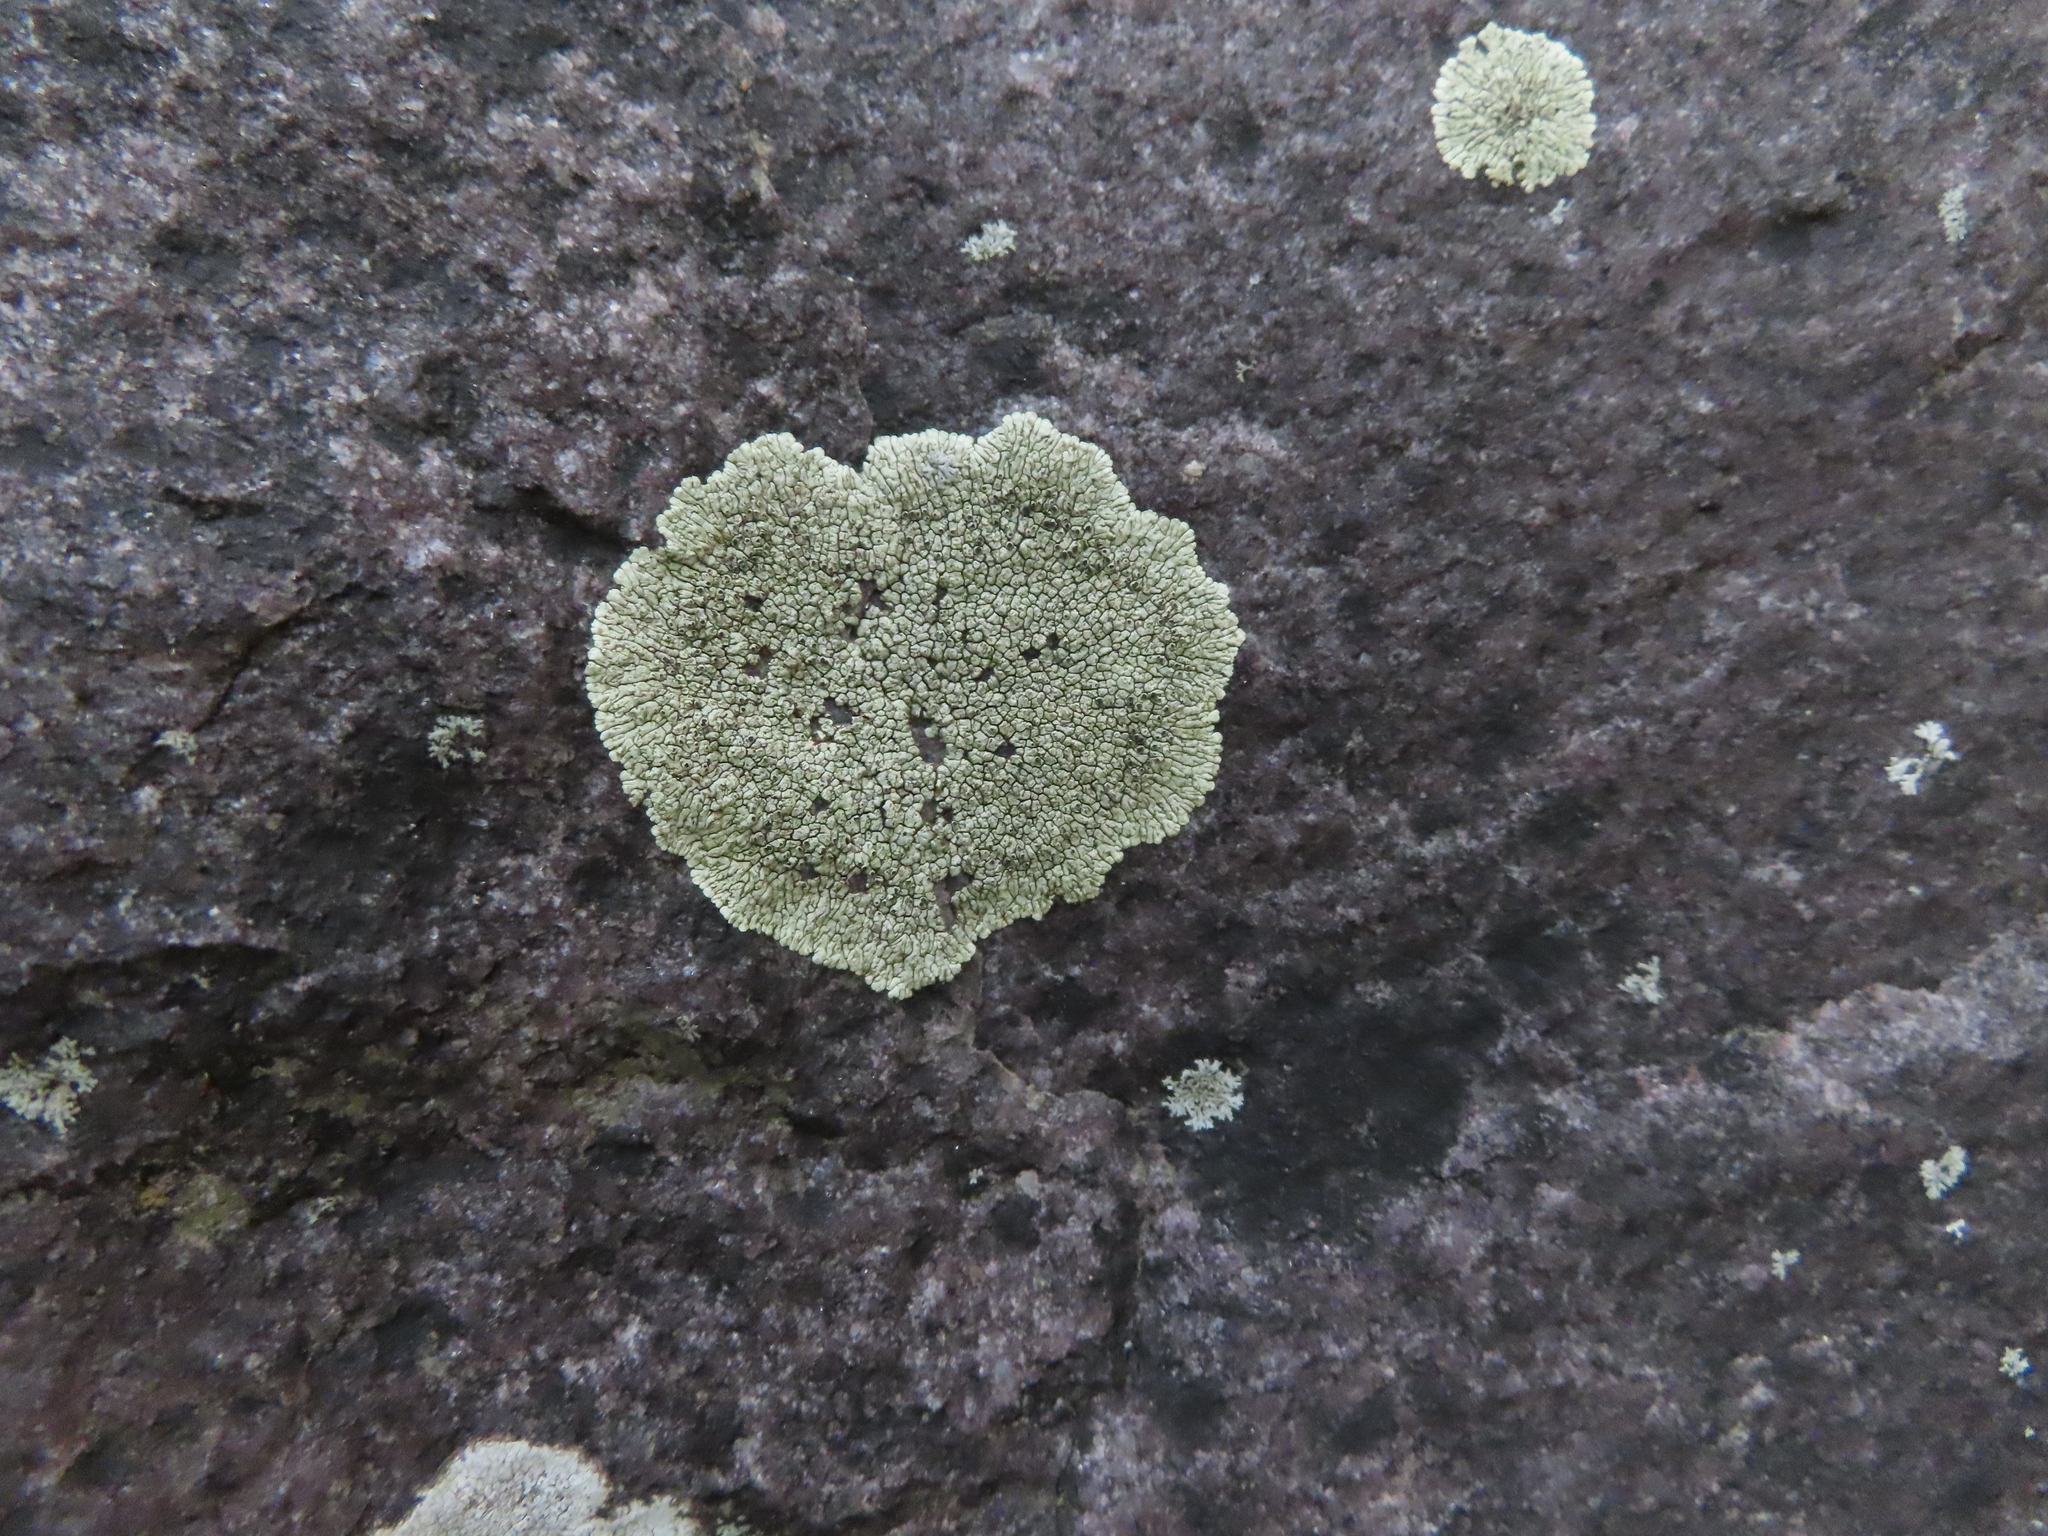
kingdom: Fungi
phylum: Ascomycota
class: Lecanoromycetes
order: Caliciales
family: Caliciaceae
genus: Dimelaena
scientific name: Dimelaena oreina
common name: Golden moonglow lichen
